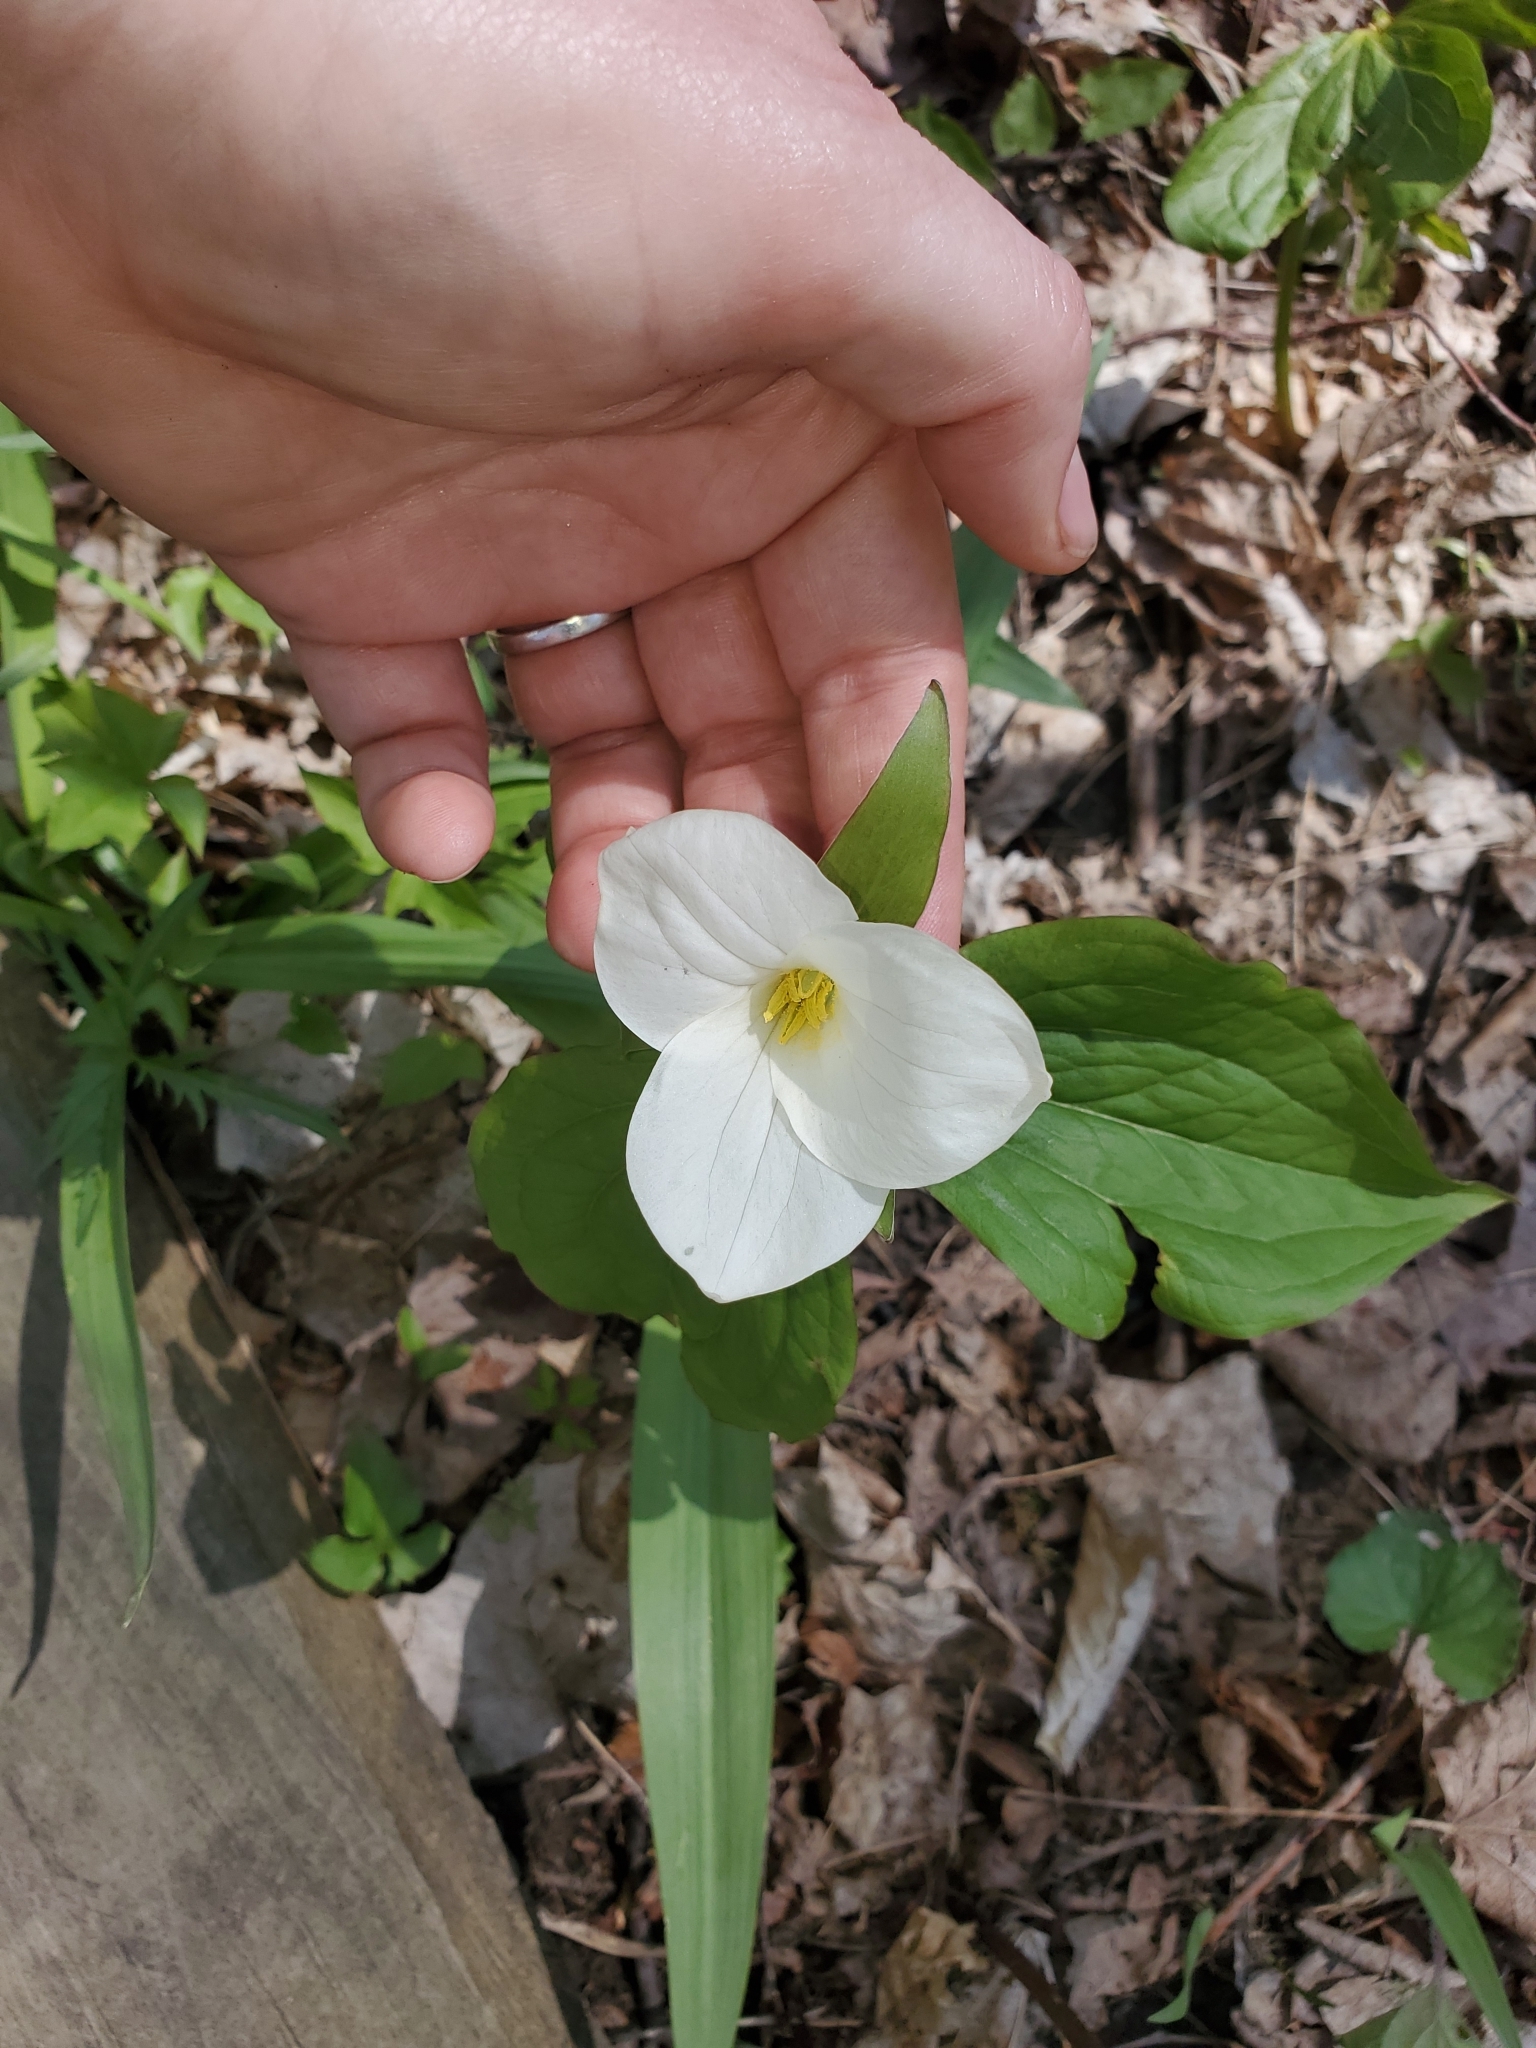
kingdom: Plantae
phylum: Tracheophyta
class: Liliopsida
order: Liliales
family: Melanthiaceae
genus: Trillium
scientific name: Trillium grandiflorum
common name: Great white trillium
